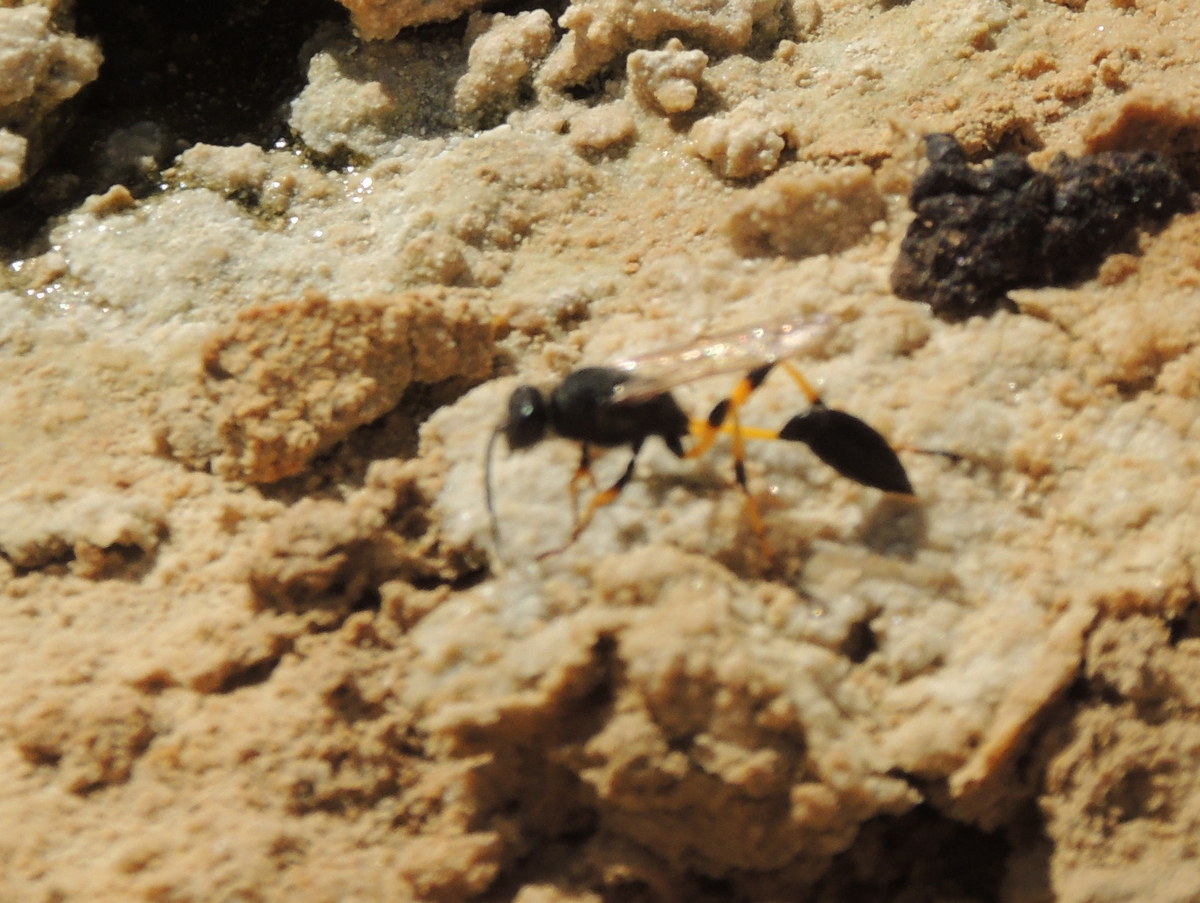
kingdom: Animalia
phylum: Arthropoda
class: Insecta
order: Hymenoptera
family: Sphecidae
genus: Sceliphron
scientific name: Sceliphron spirifex
